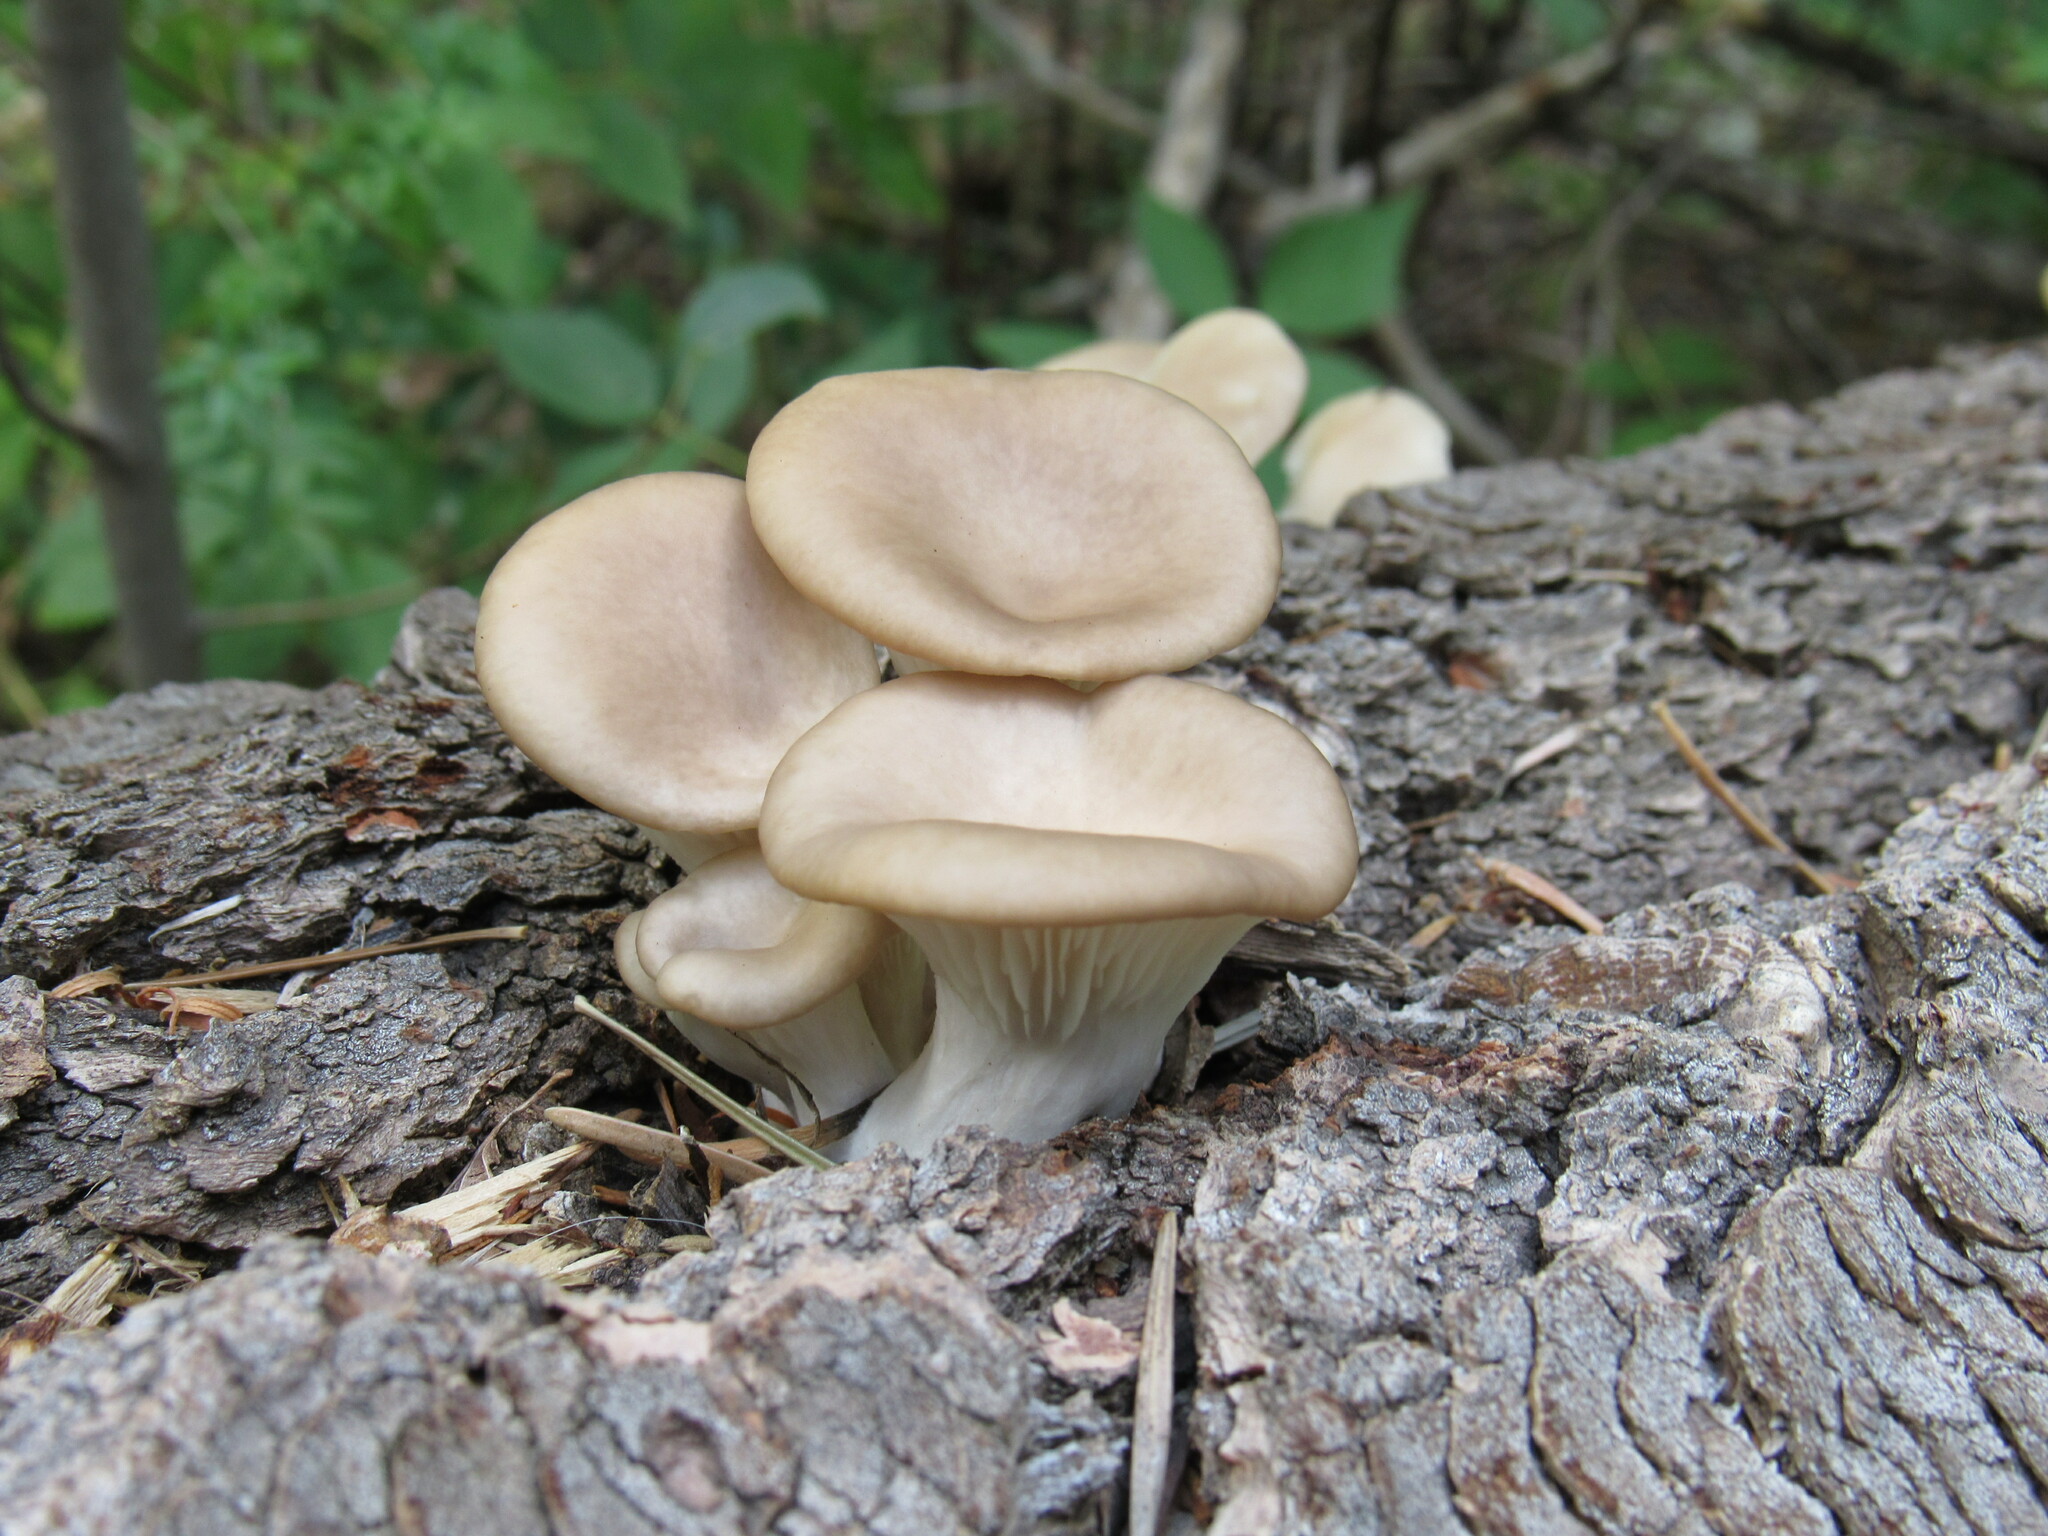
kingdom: Fungi
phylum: Basidiomycota
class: Agaricomycetes
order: Agaricales
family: Pleurotaceae
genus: Pleurotus
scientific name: Pleurotus pulmonarius
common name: Pale oyster
